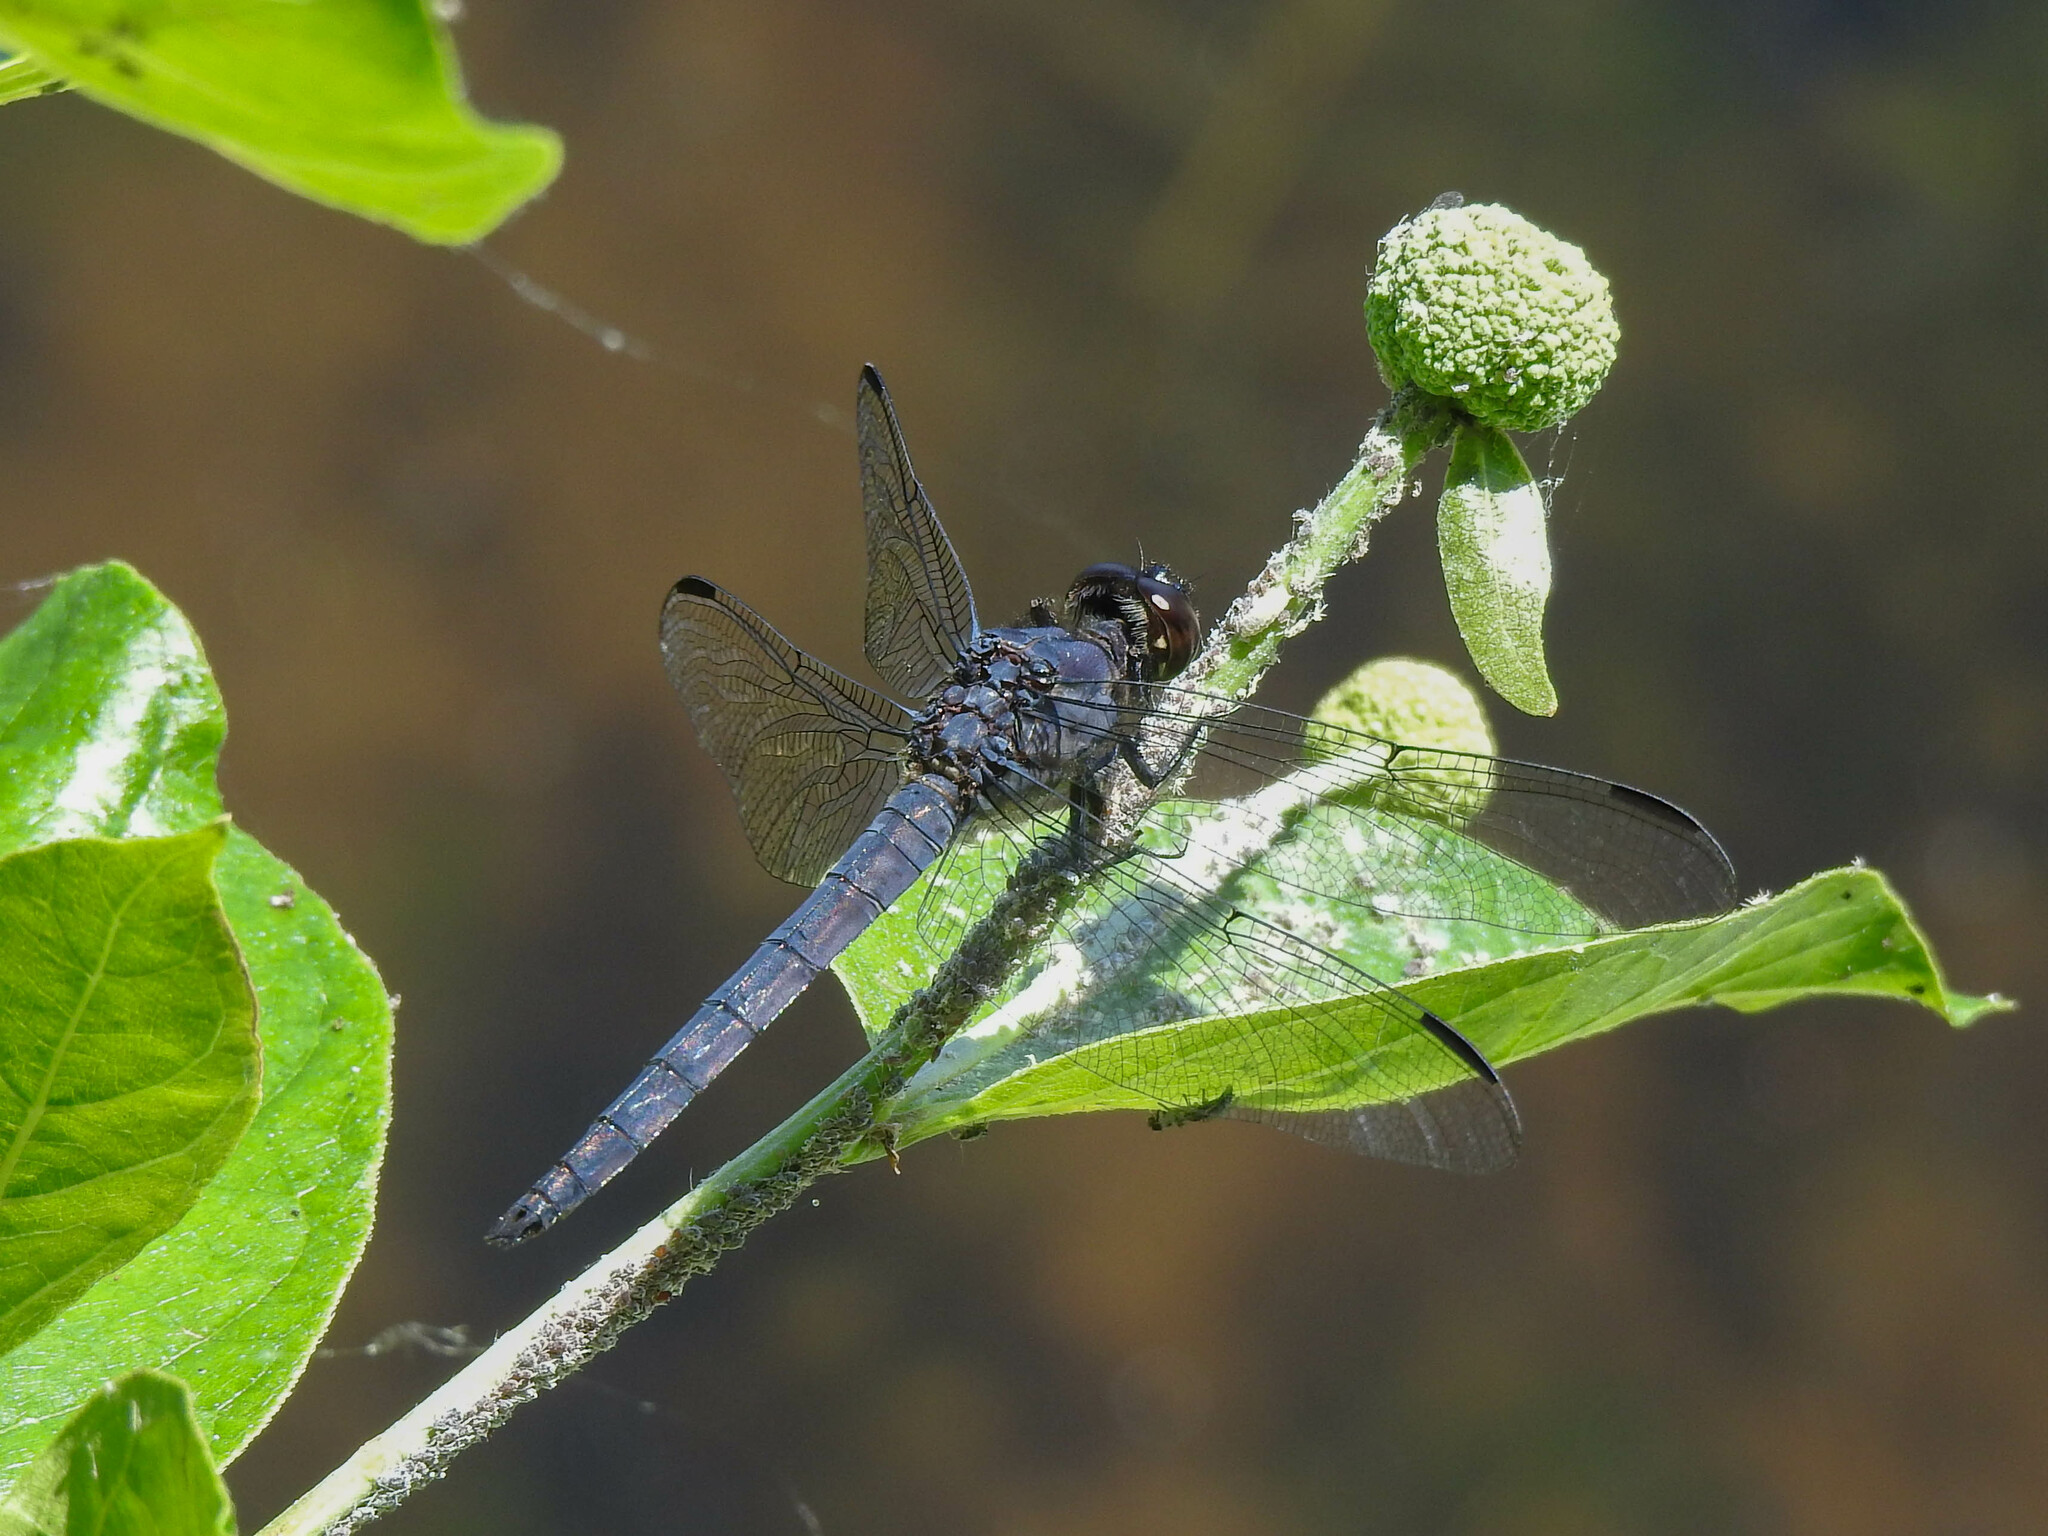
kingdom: Animalia
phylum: Arthropoda
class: Insecta
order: Odonata
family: Libellulidae
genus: Libellula
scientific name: Libellula incesta
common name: Slaty skimmer
